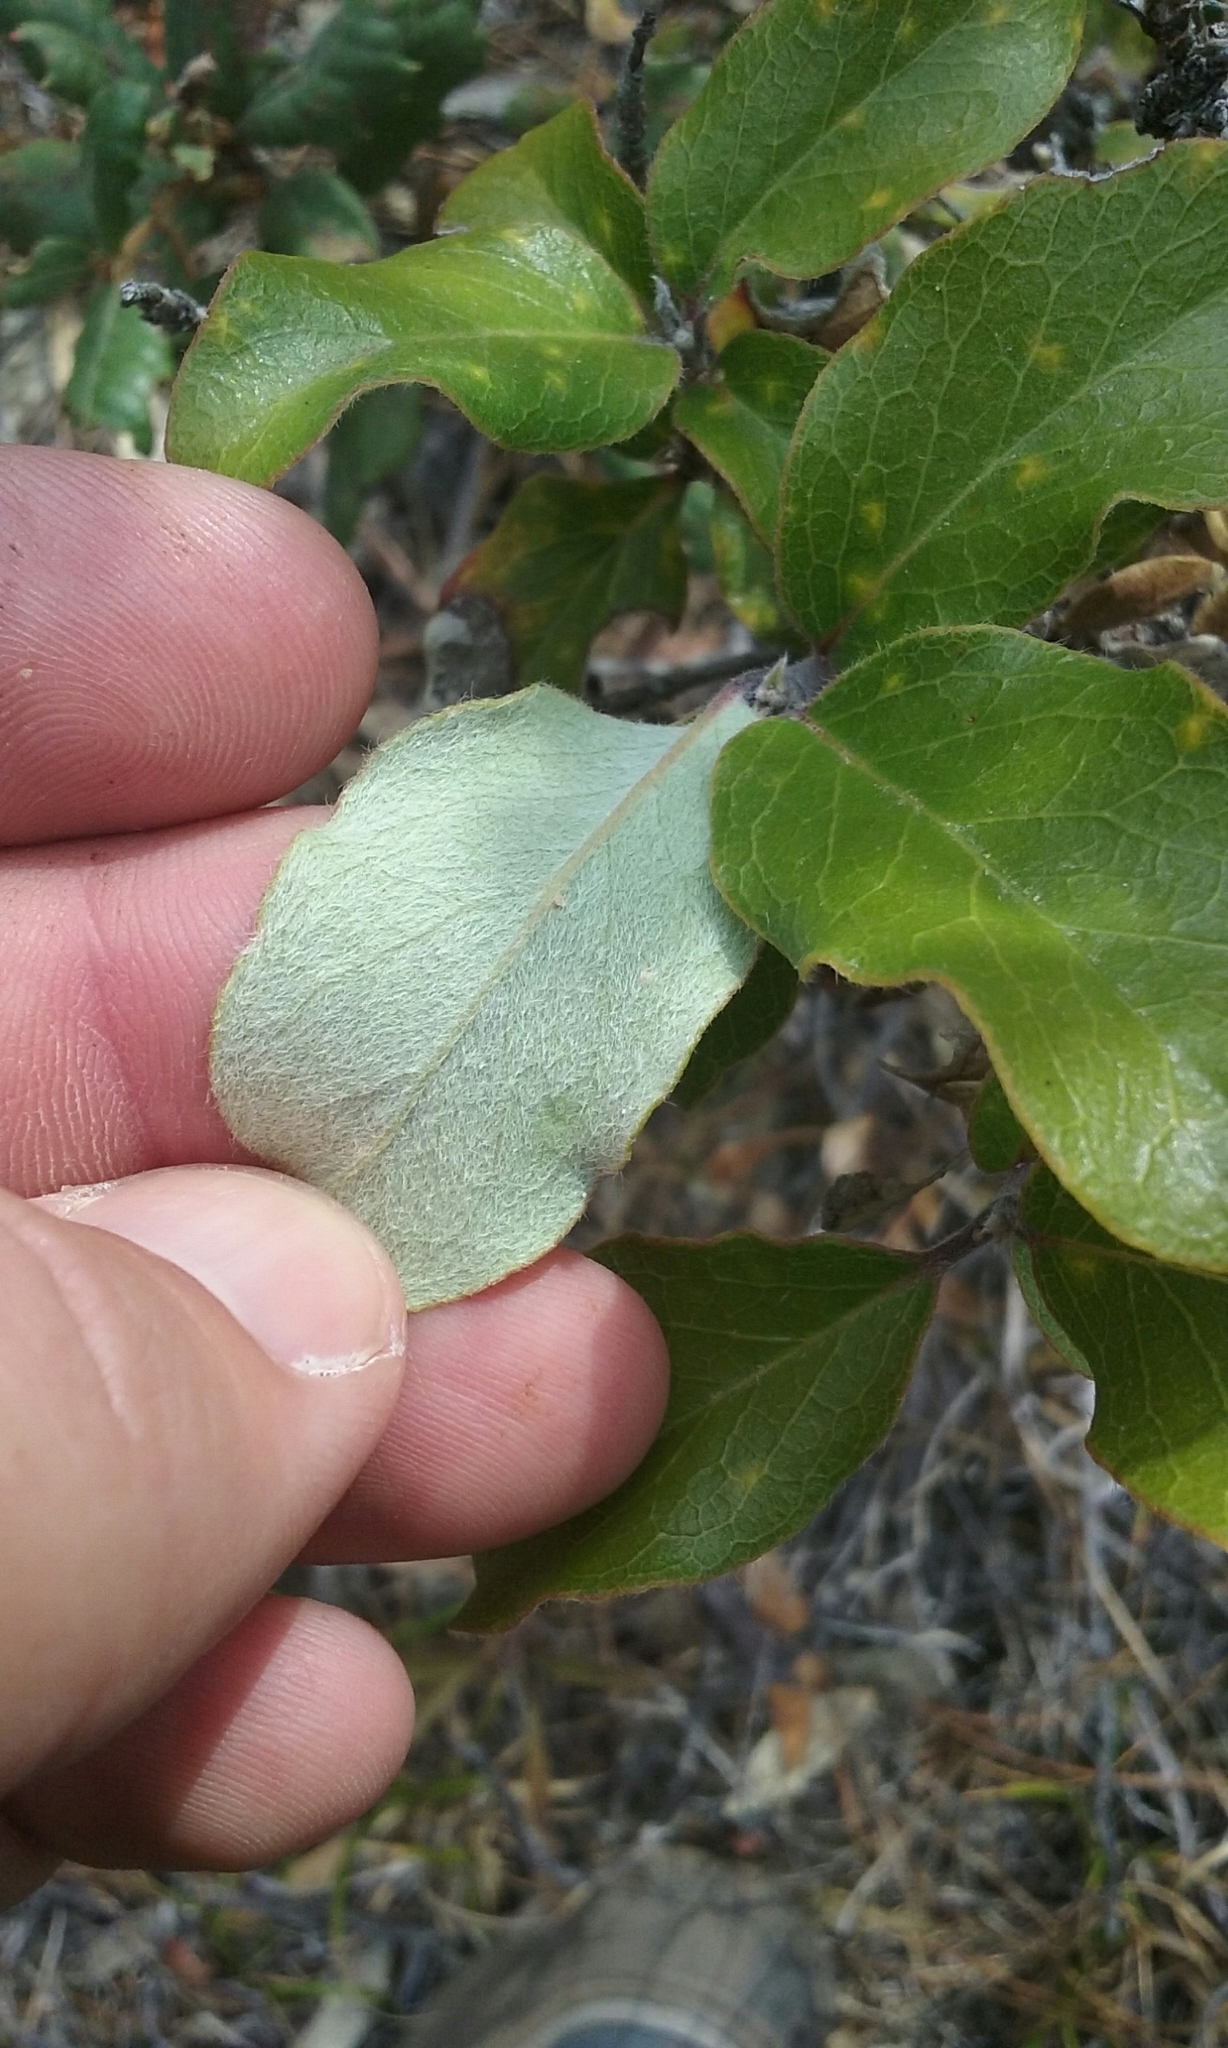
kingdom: Plantae
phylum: Tracheophyta
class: Magnoliopsida
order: Garryales
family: Garryaceae
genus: Garrya
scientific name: Garrya flavescens
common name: Ashy silk-tassel
